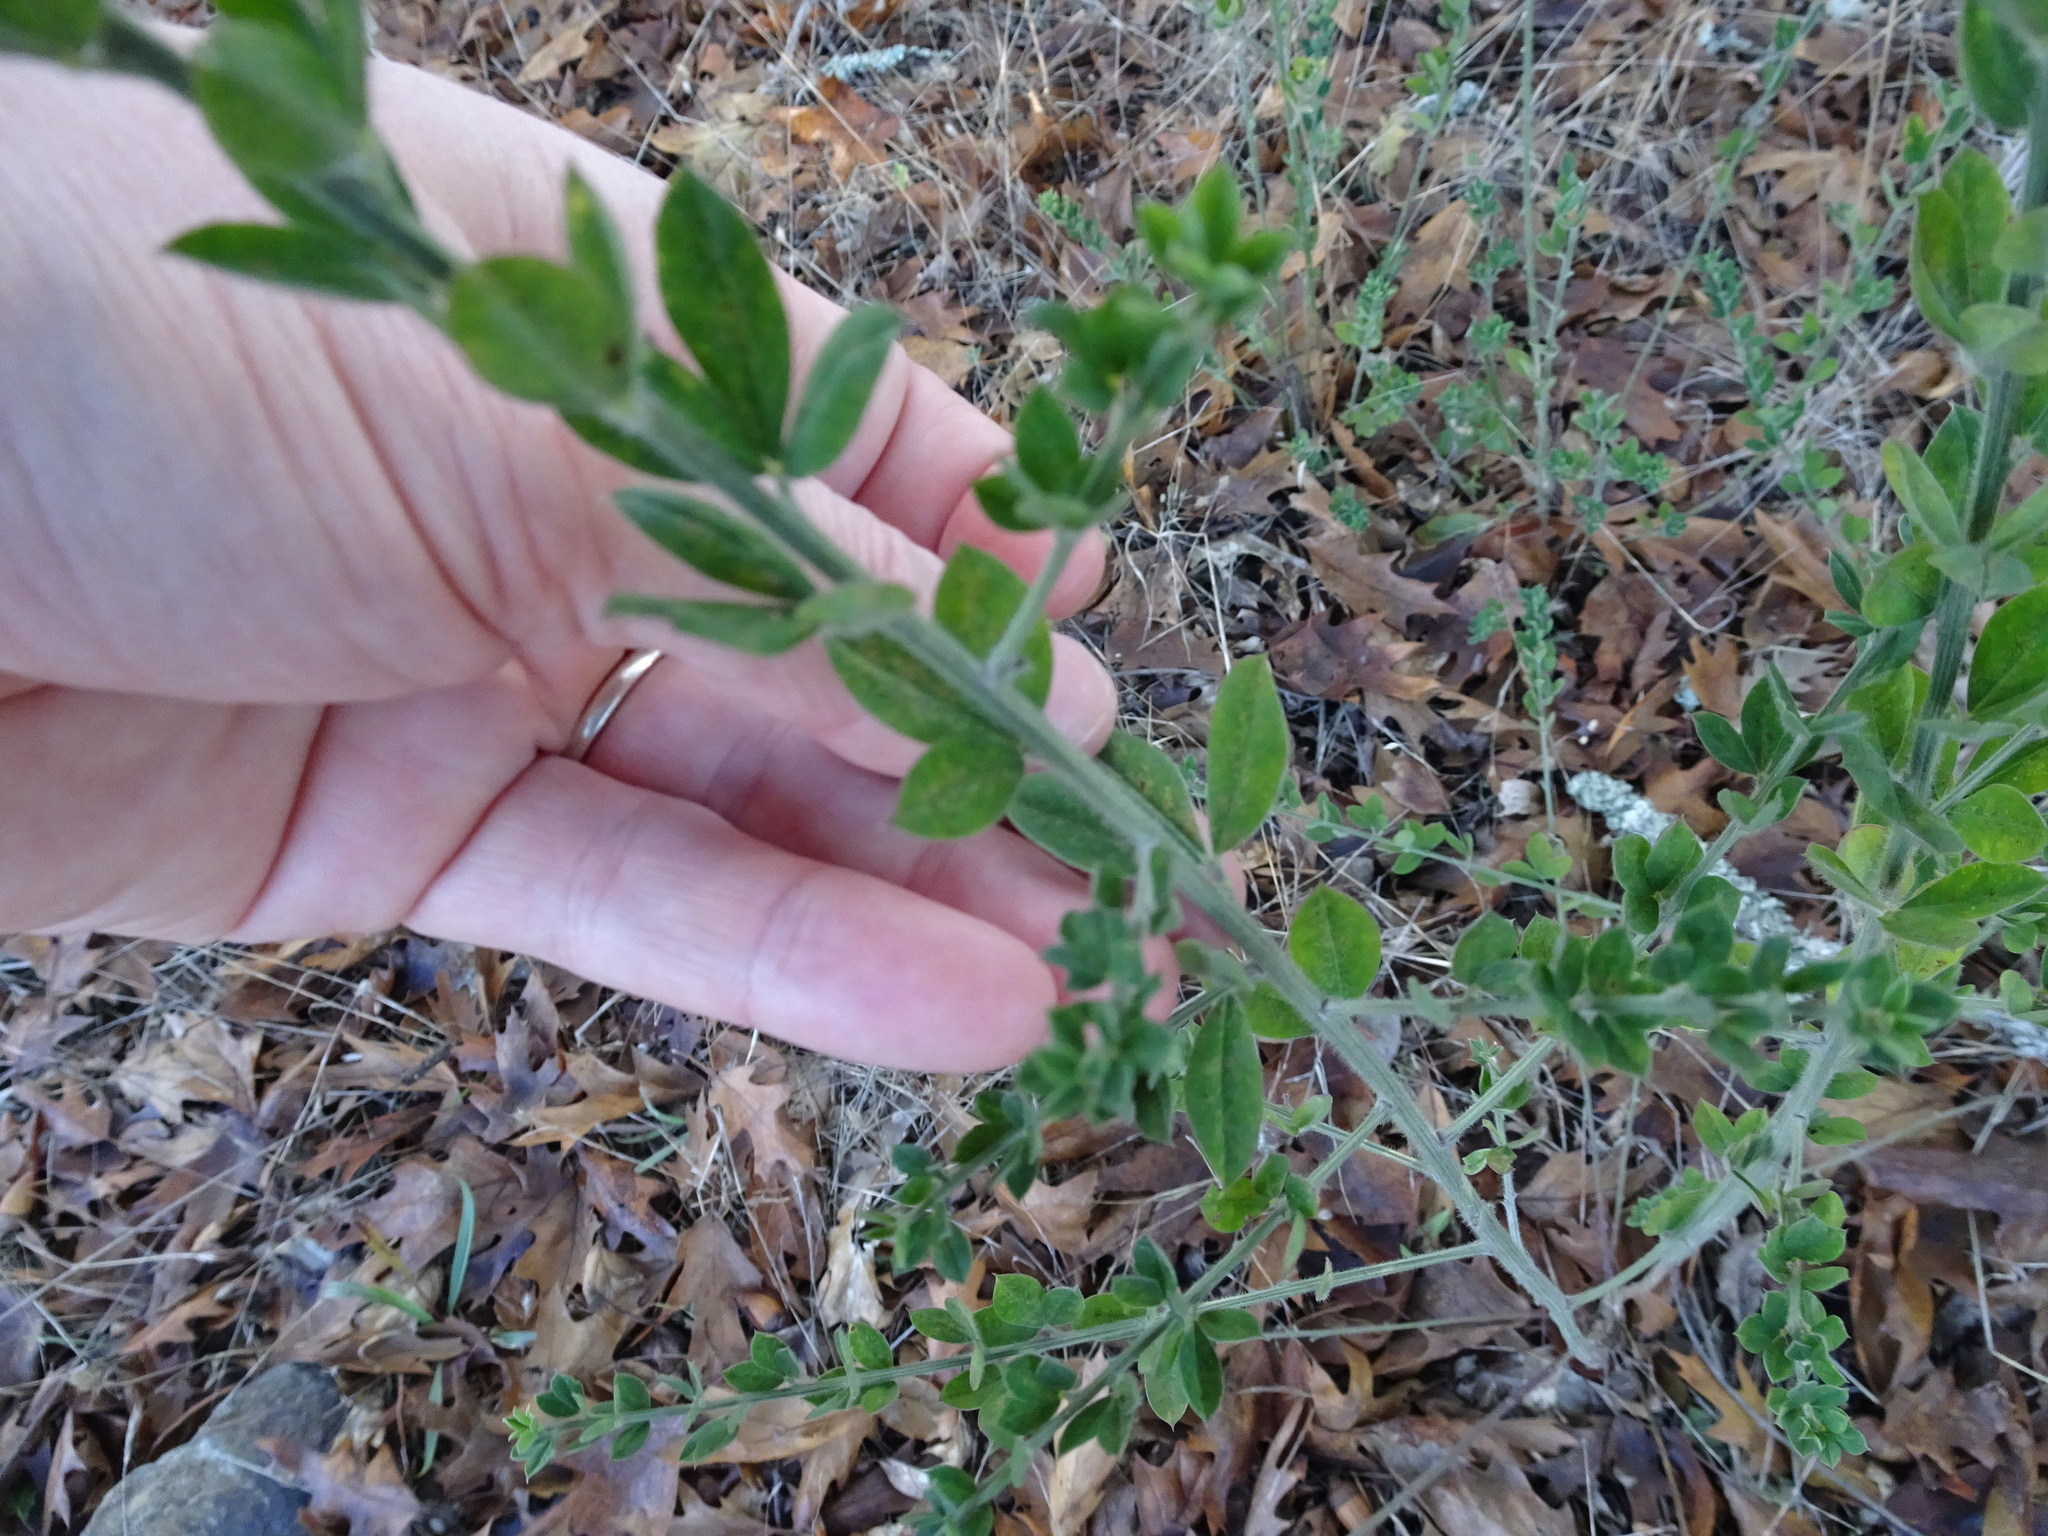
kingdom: Plantae
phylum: Tracheophyta
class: Magnoliopsida
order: Fabales
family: Fabaceae
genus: Genista
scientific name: Genista monspessulana
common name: Montpellier broom
